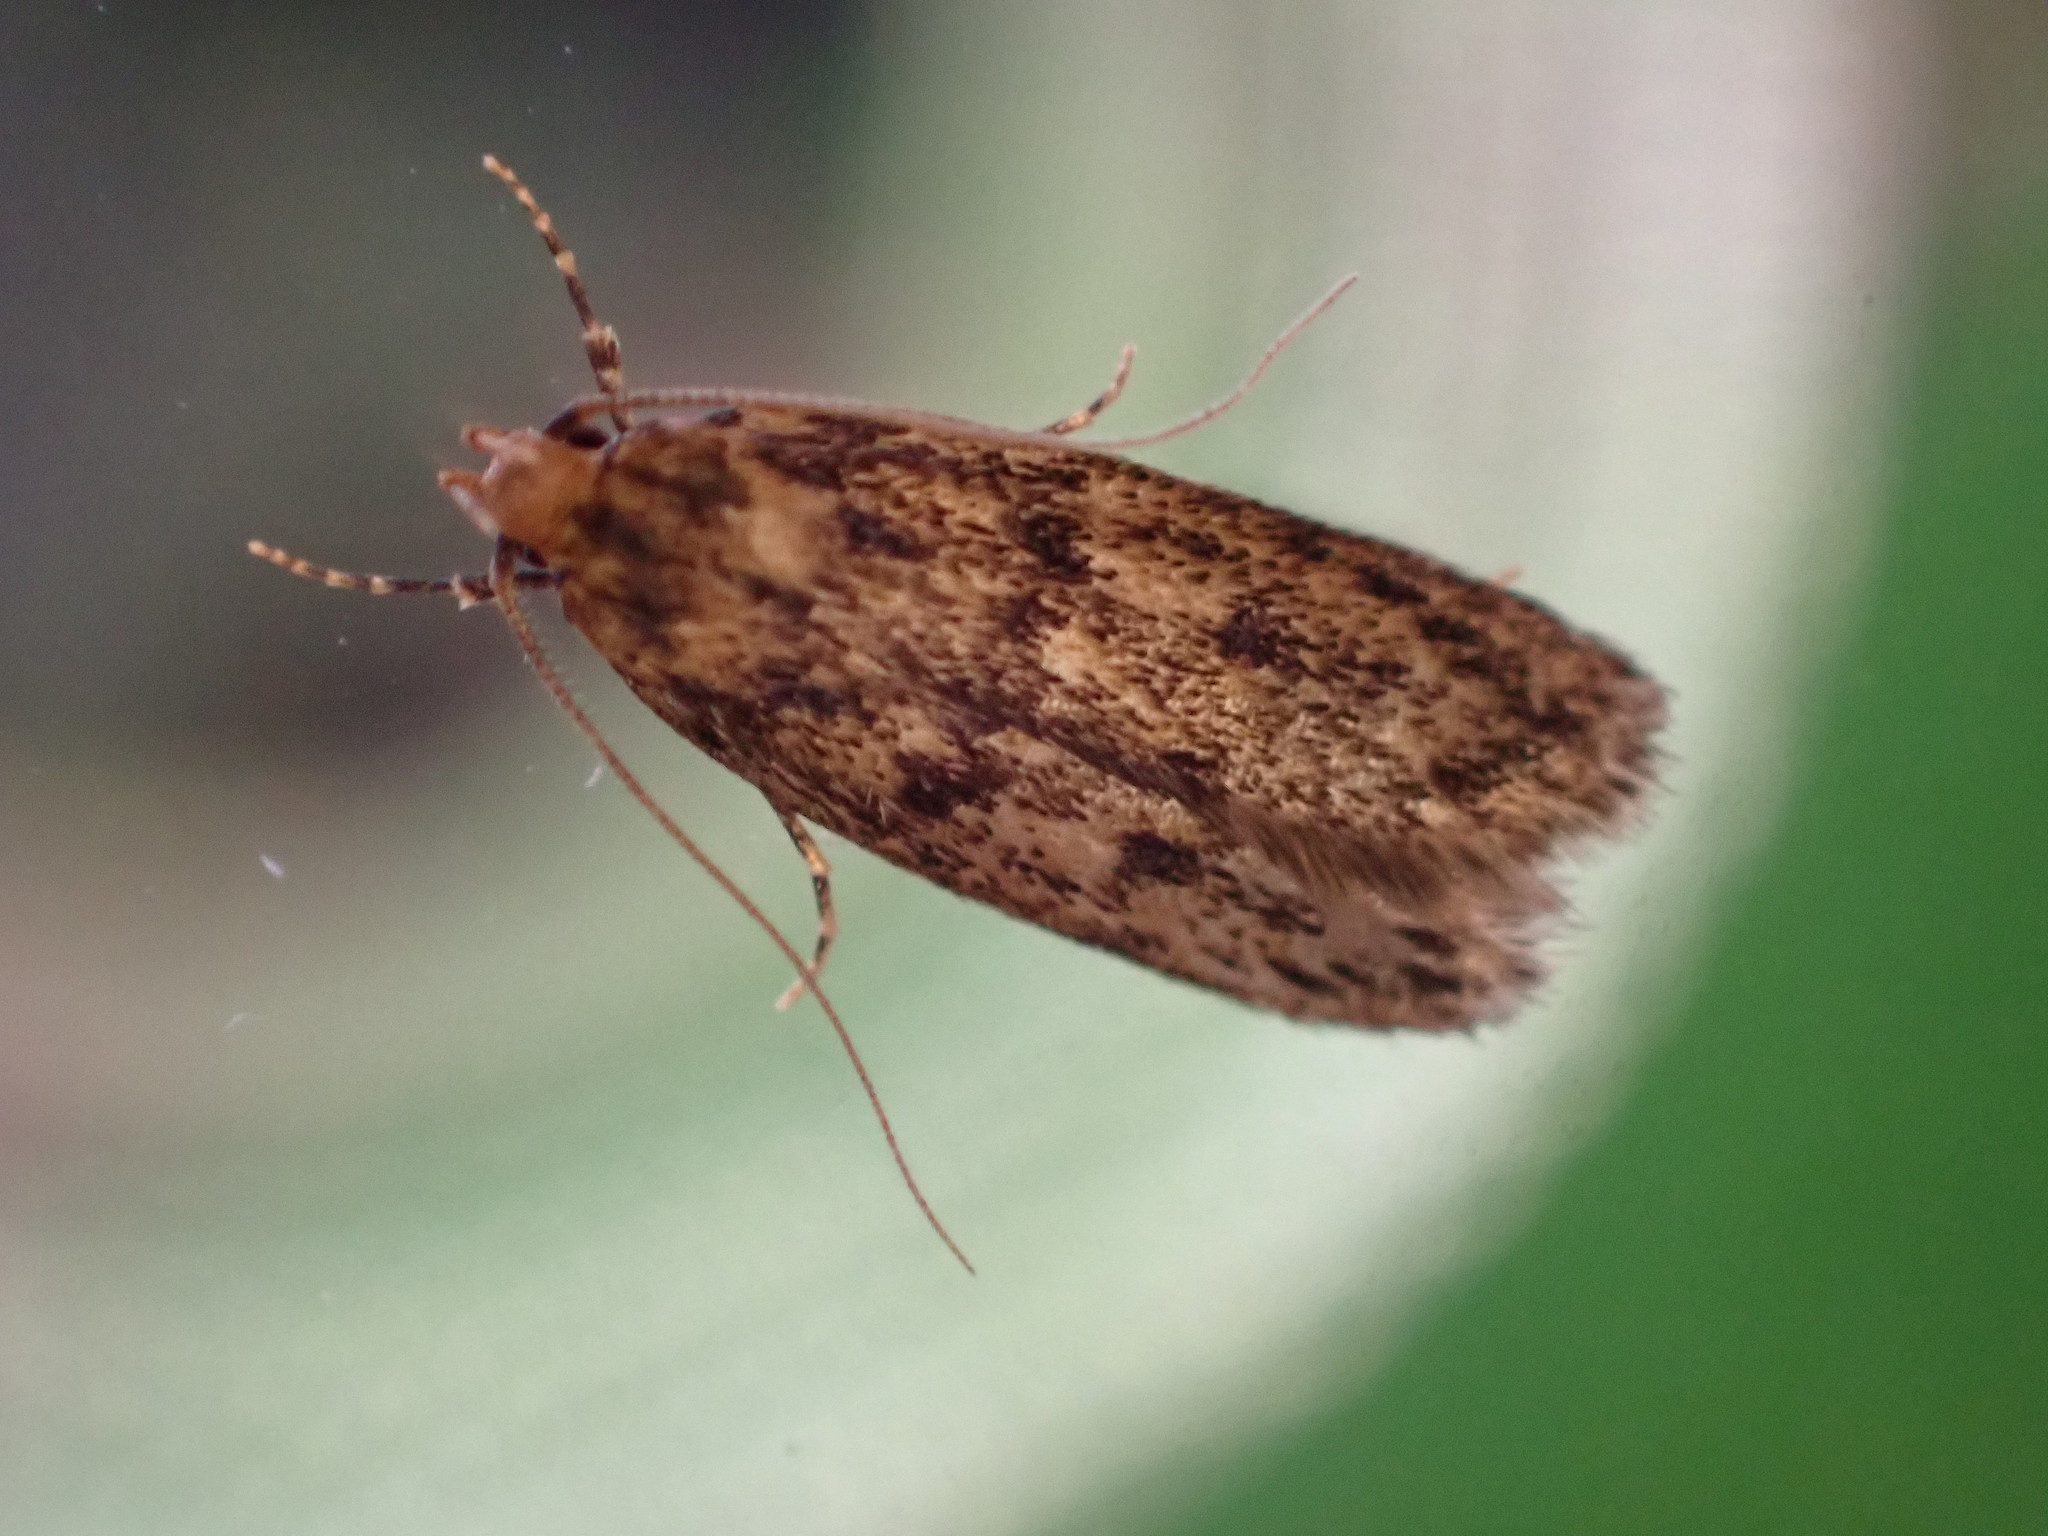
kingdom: Animalia
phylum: Arthropoda
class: Insecta
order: Lepidoptera
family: Oecophoridae
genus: Hofmannophila
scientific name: Hofmannophila pseudospretella
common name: Brown house moth
